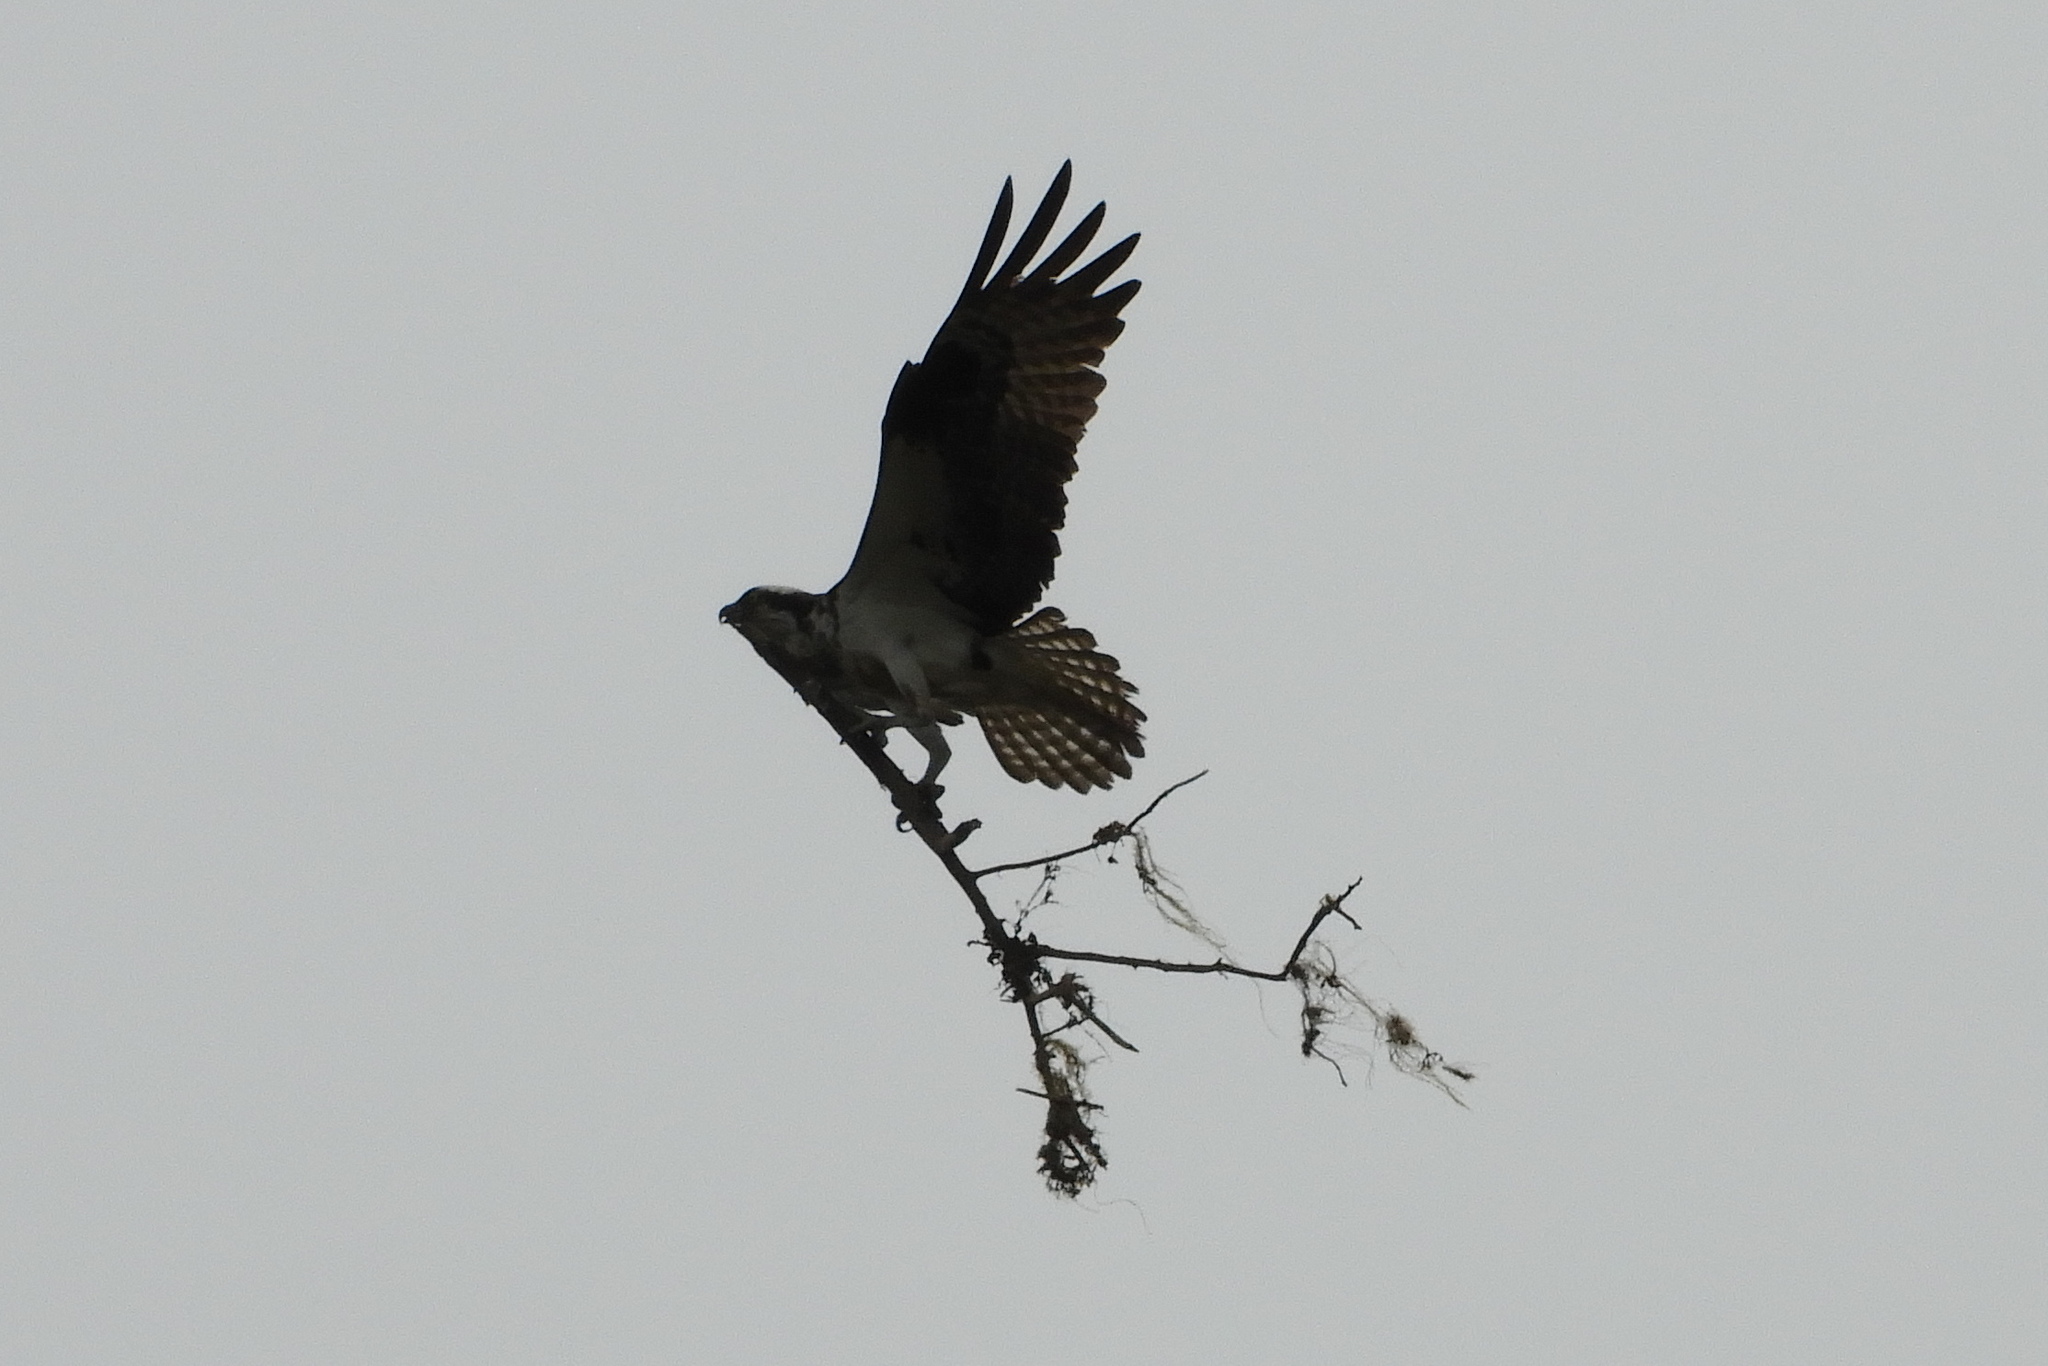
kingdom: Animalia
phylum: Chordata
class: Aves
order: Accipitriformes
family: Pandionidae
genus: Pandion
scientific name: Pandion haliaetus
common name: Osprey
